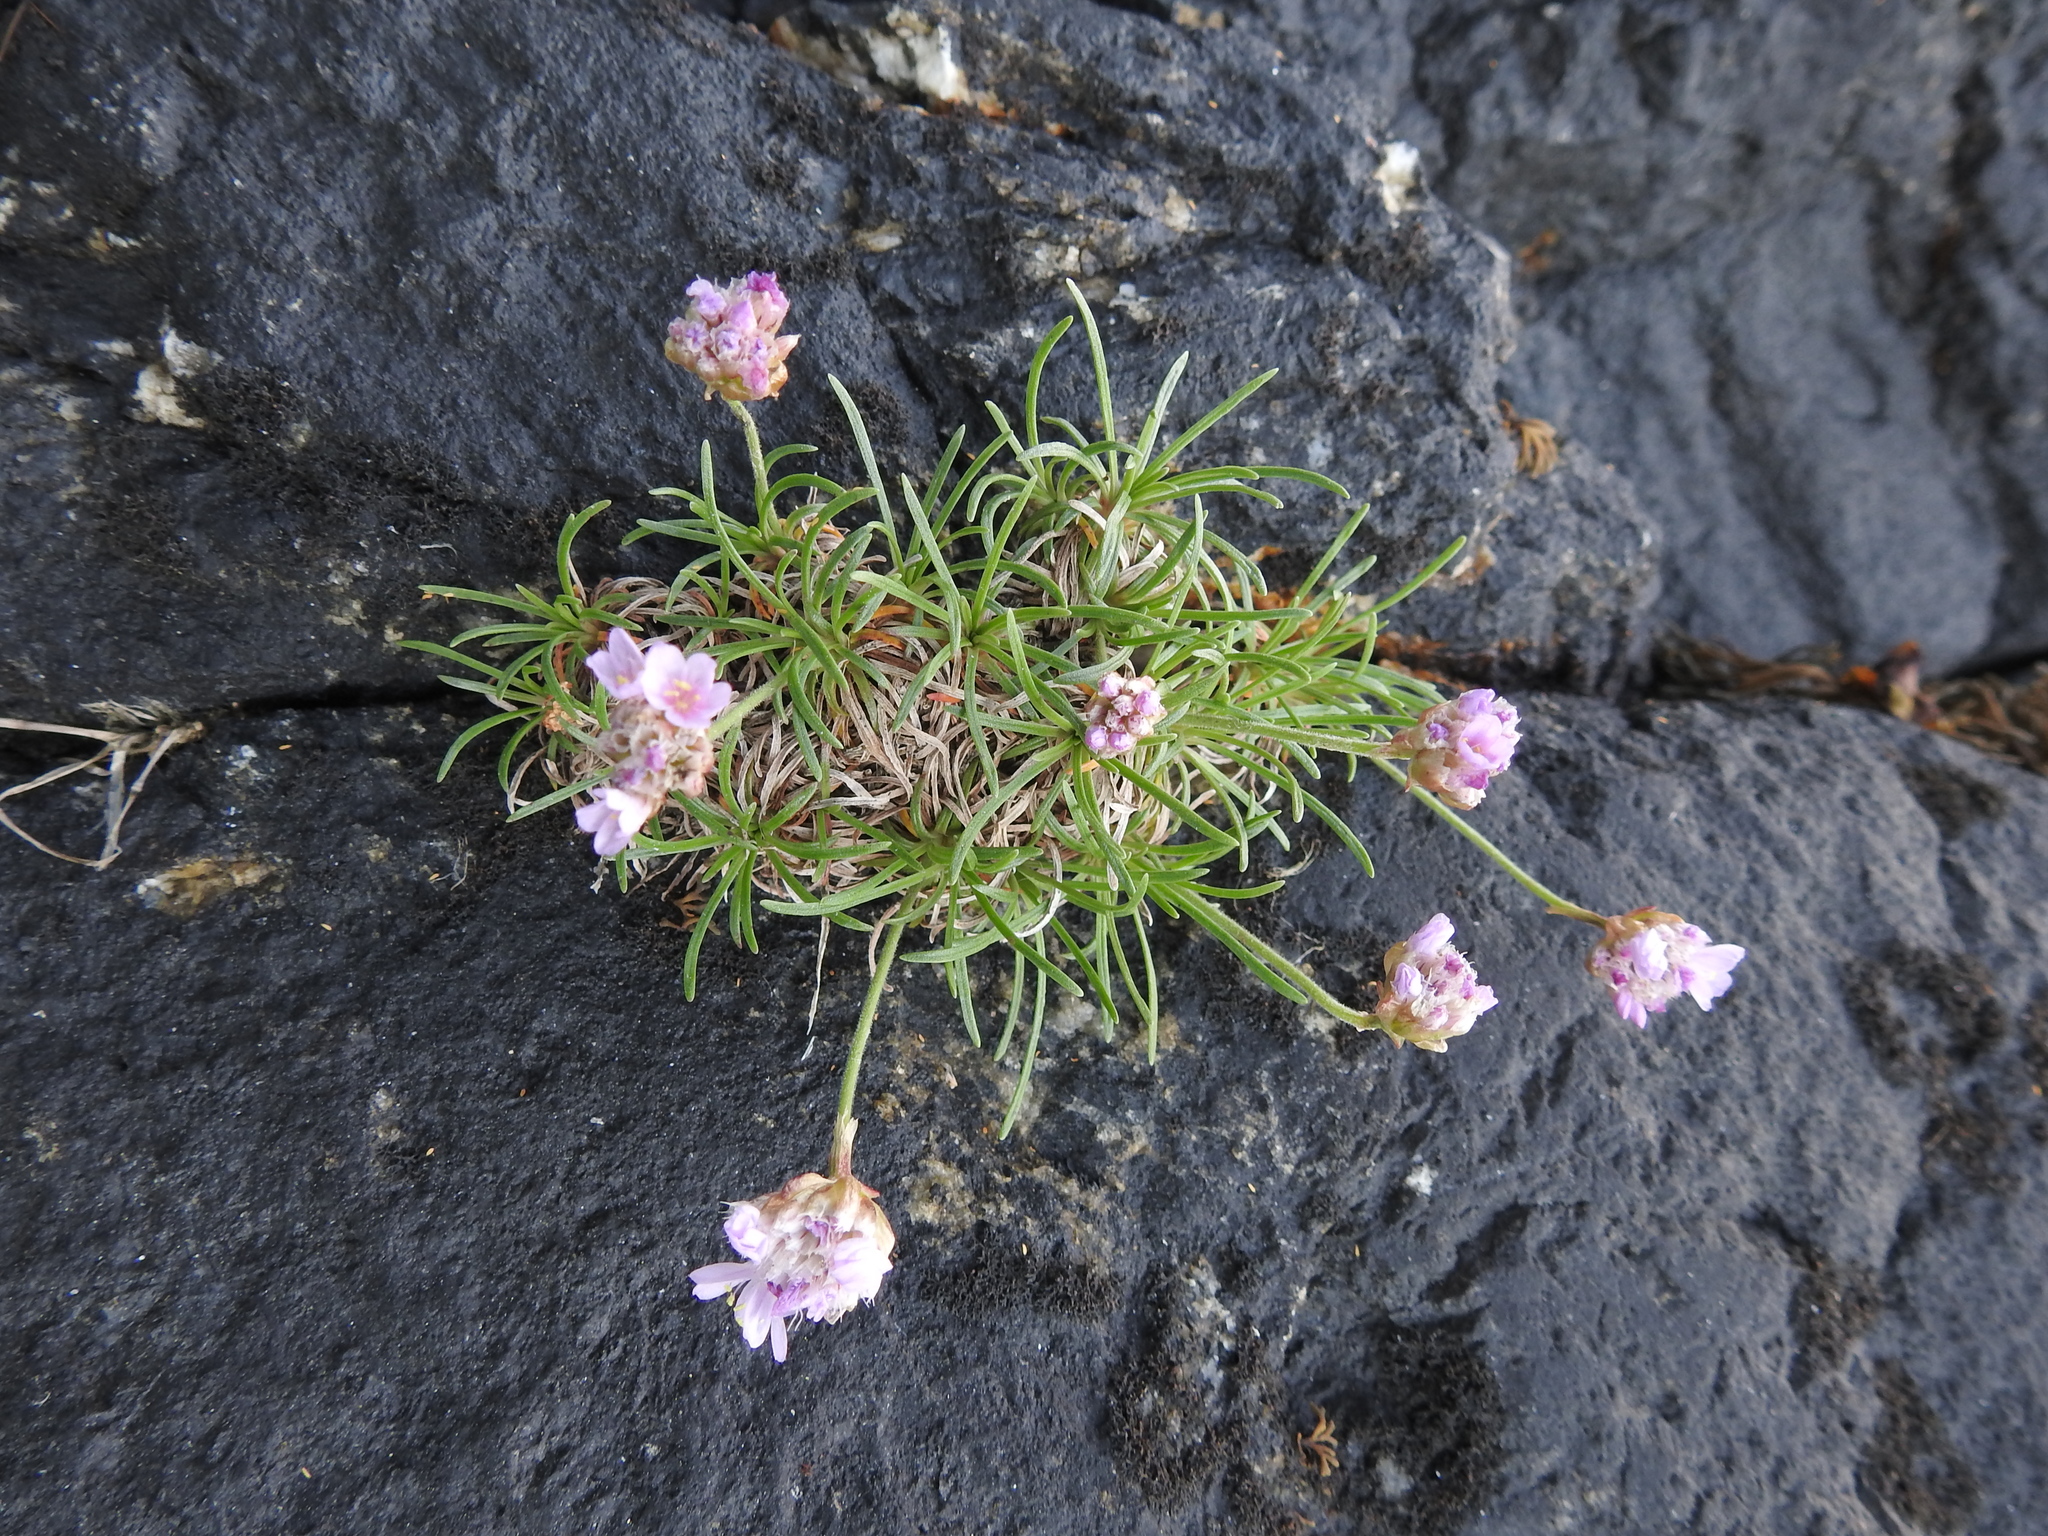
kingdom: Plantae
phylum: Tracheophyta
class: Magnoliopsida
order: Caryophyllales
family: Plumbaginaceae
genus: Armeria
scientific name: Armeria maritima
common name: Thrift
